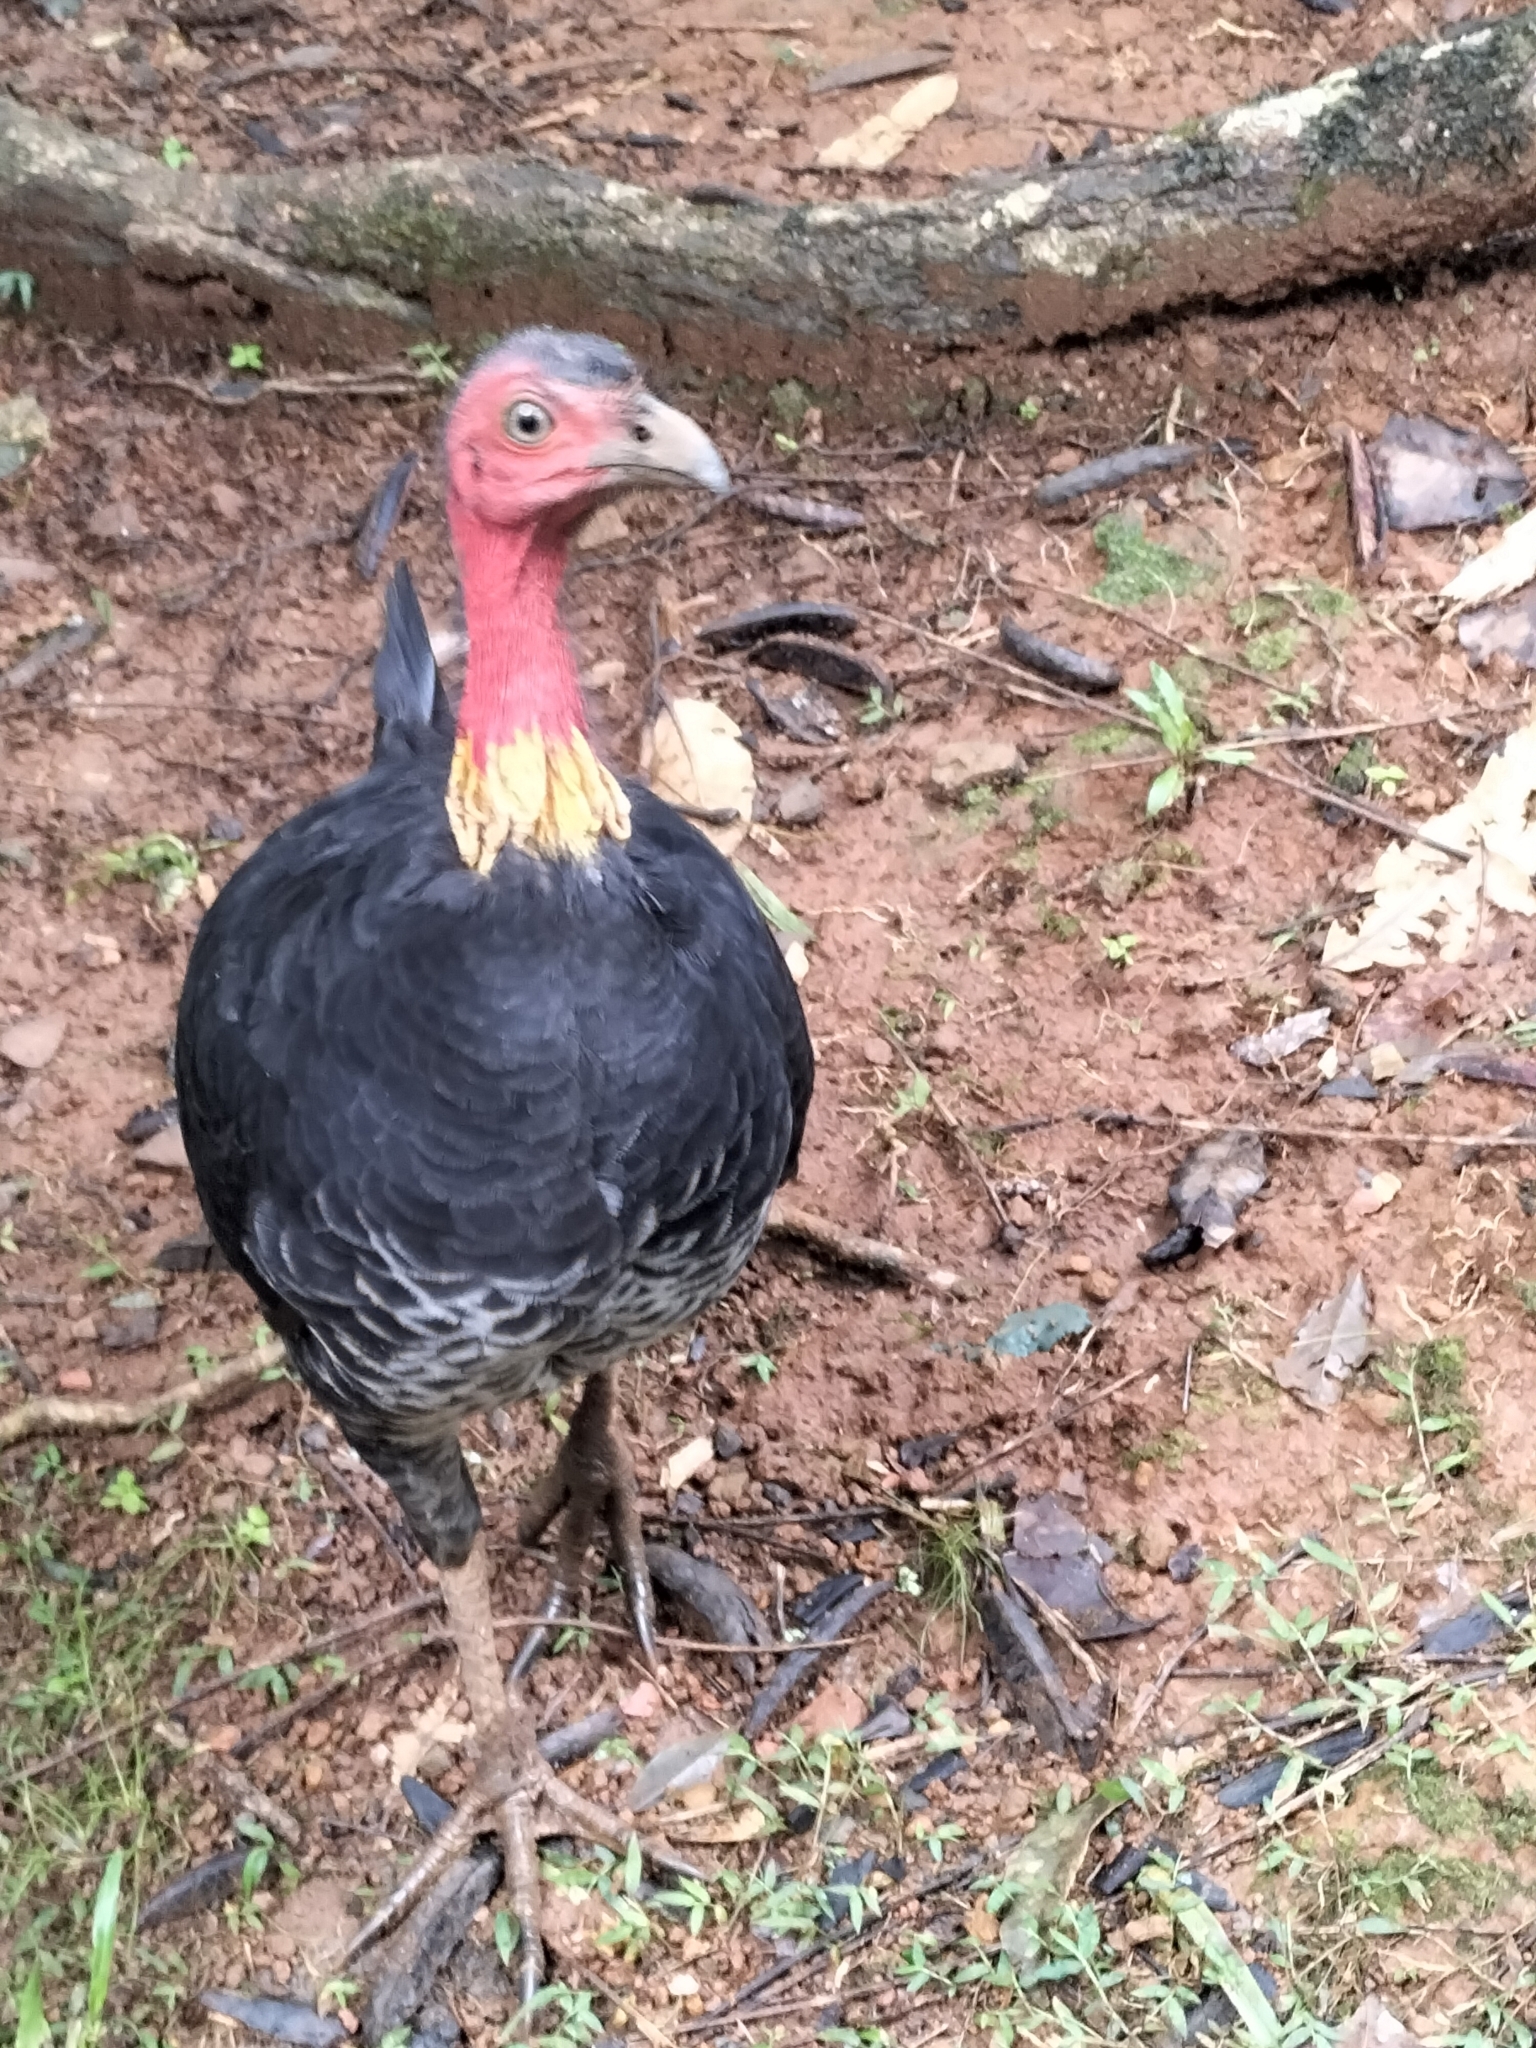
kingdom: Animalia
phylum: Chordata
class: Aves
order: Galliformes
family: Megapodiidae
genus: Alectura
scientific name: Alectura lathami
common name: Australian brushturkey
